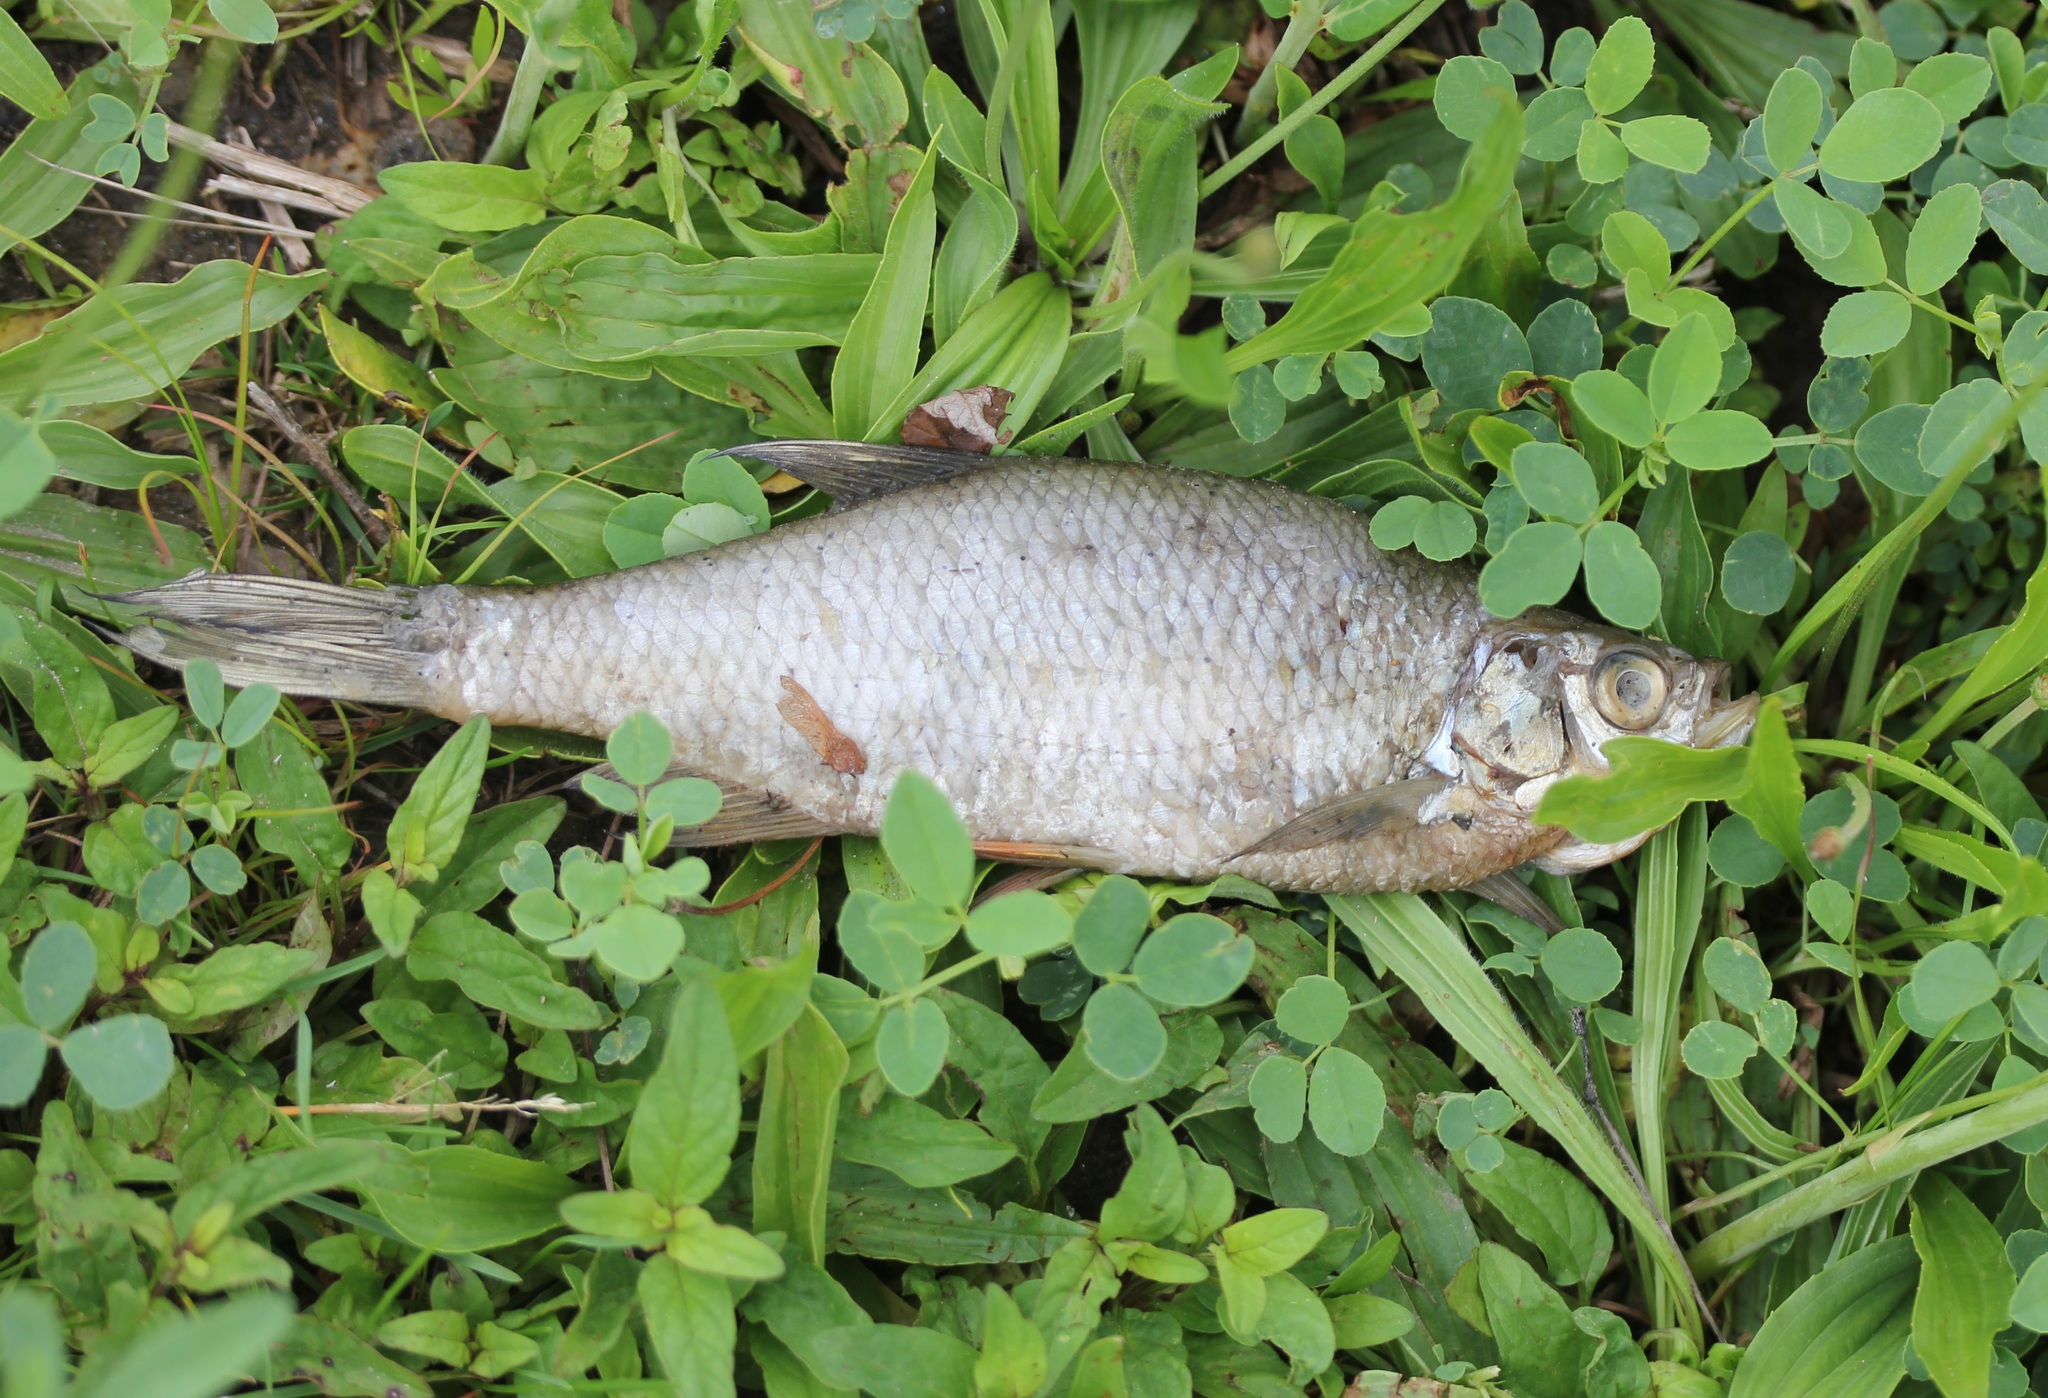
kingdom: Animalia
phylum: Chordata
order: Cypriniformes
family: Cyprinidae
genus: Notemigonus
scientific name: Notemigonus crysoleucas
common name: Golden shiner
